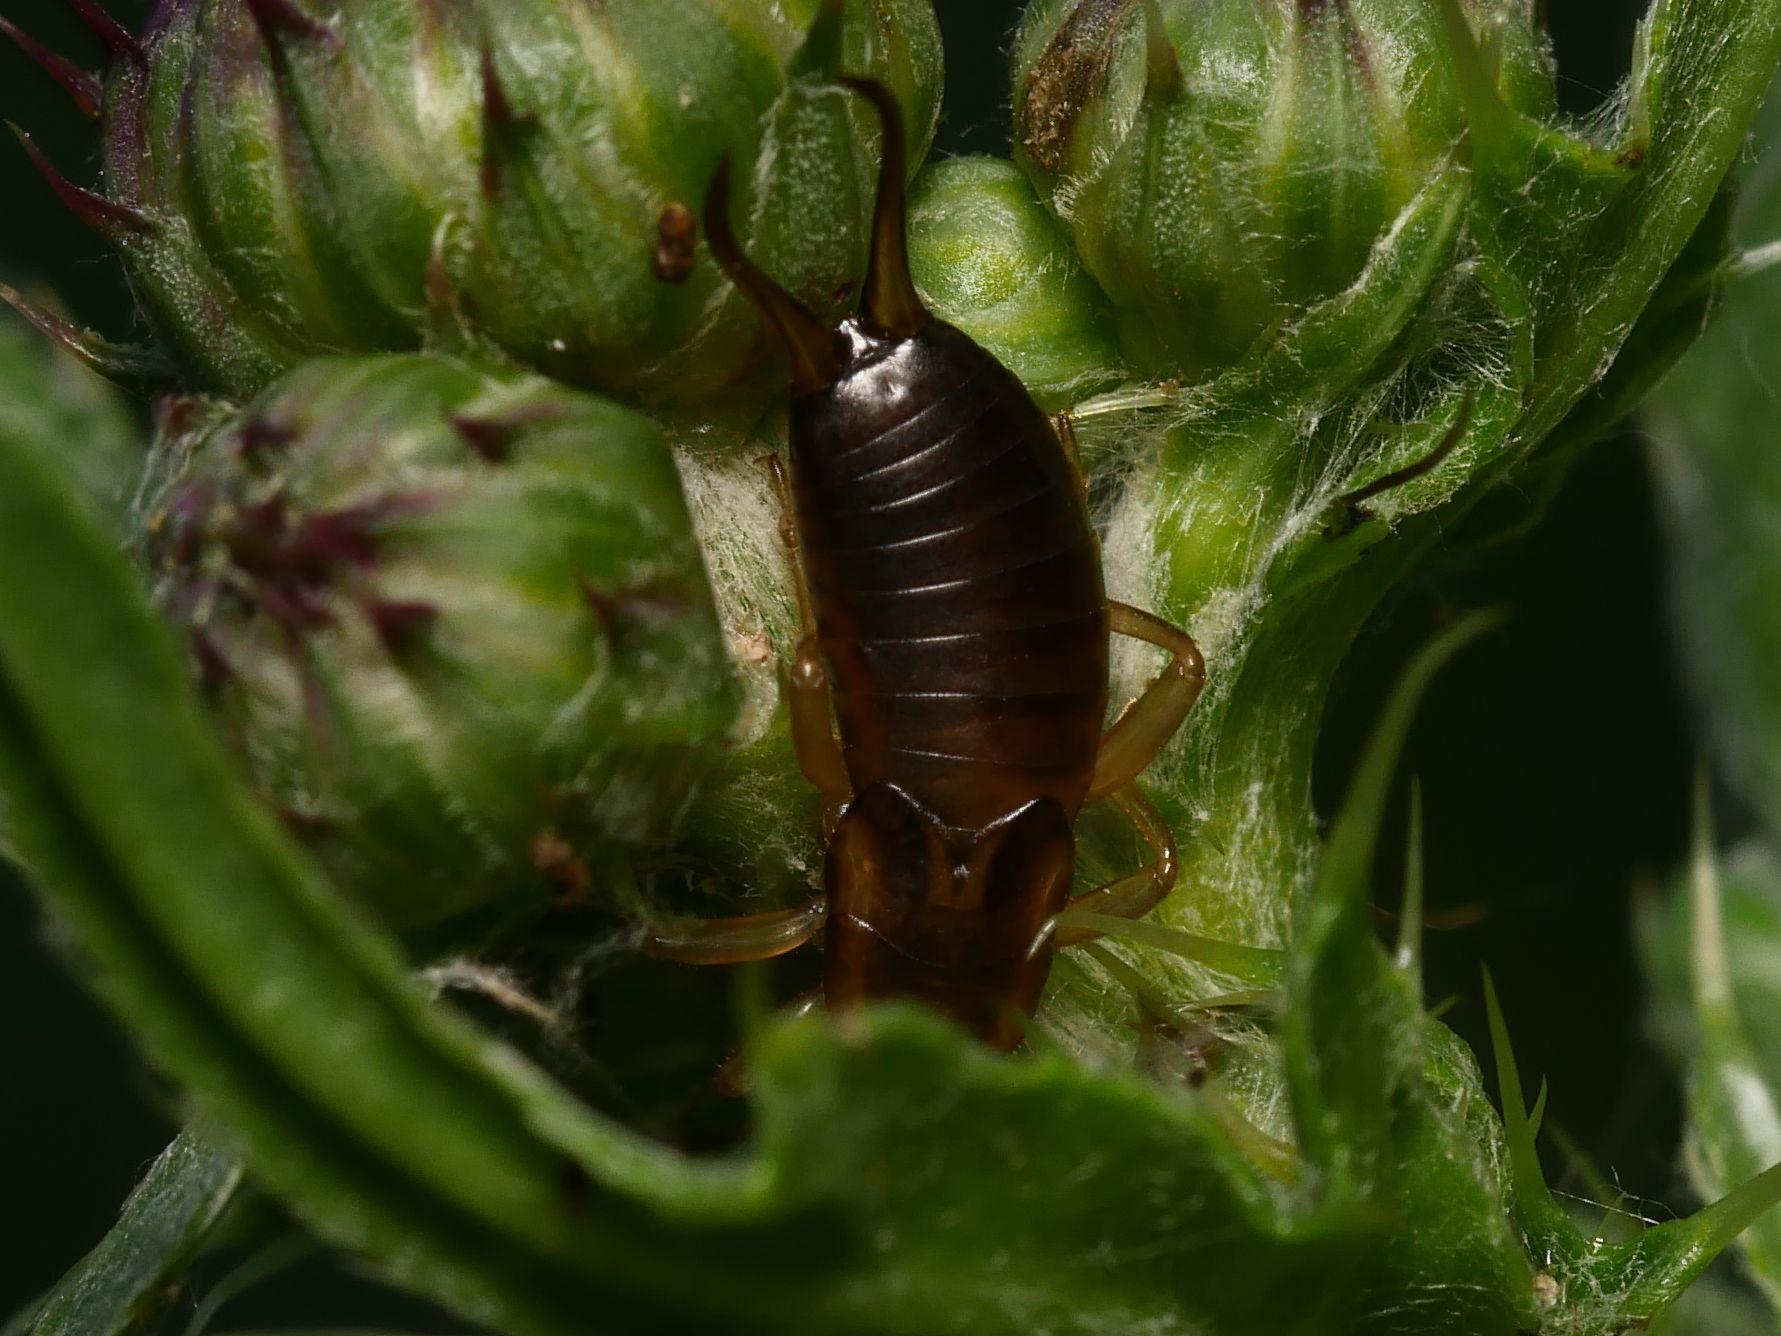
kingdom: Animalia
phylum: Arthropoda
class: Insecta
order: Dermaptera
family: Forficulidae
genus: Forficula
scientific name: Forficula
